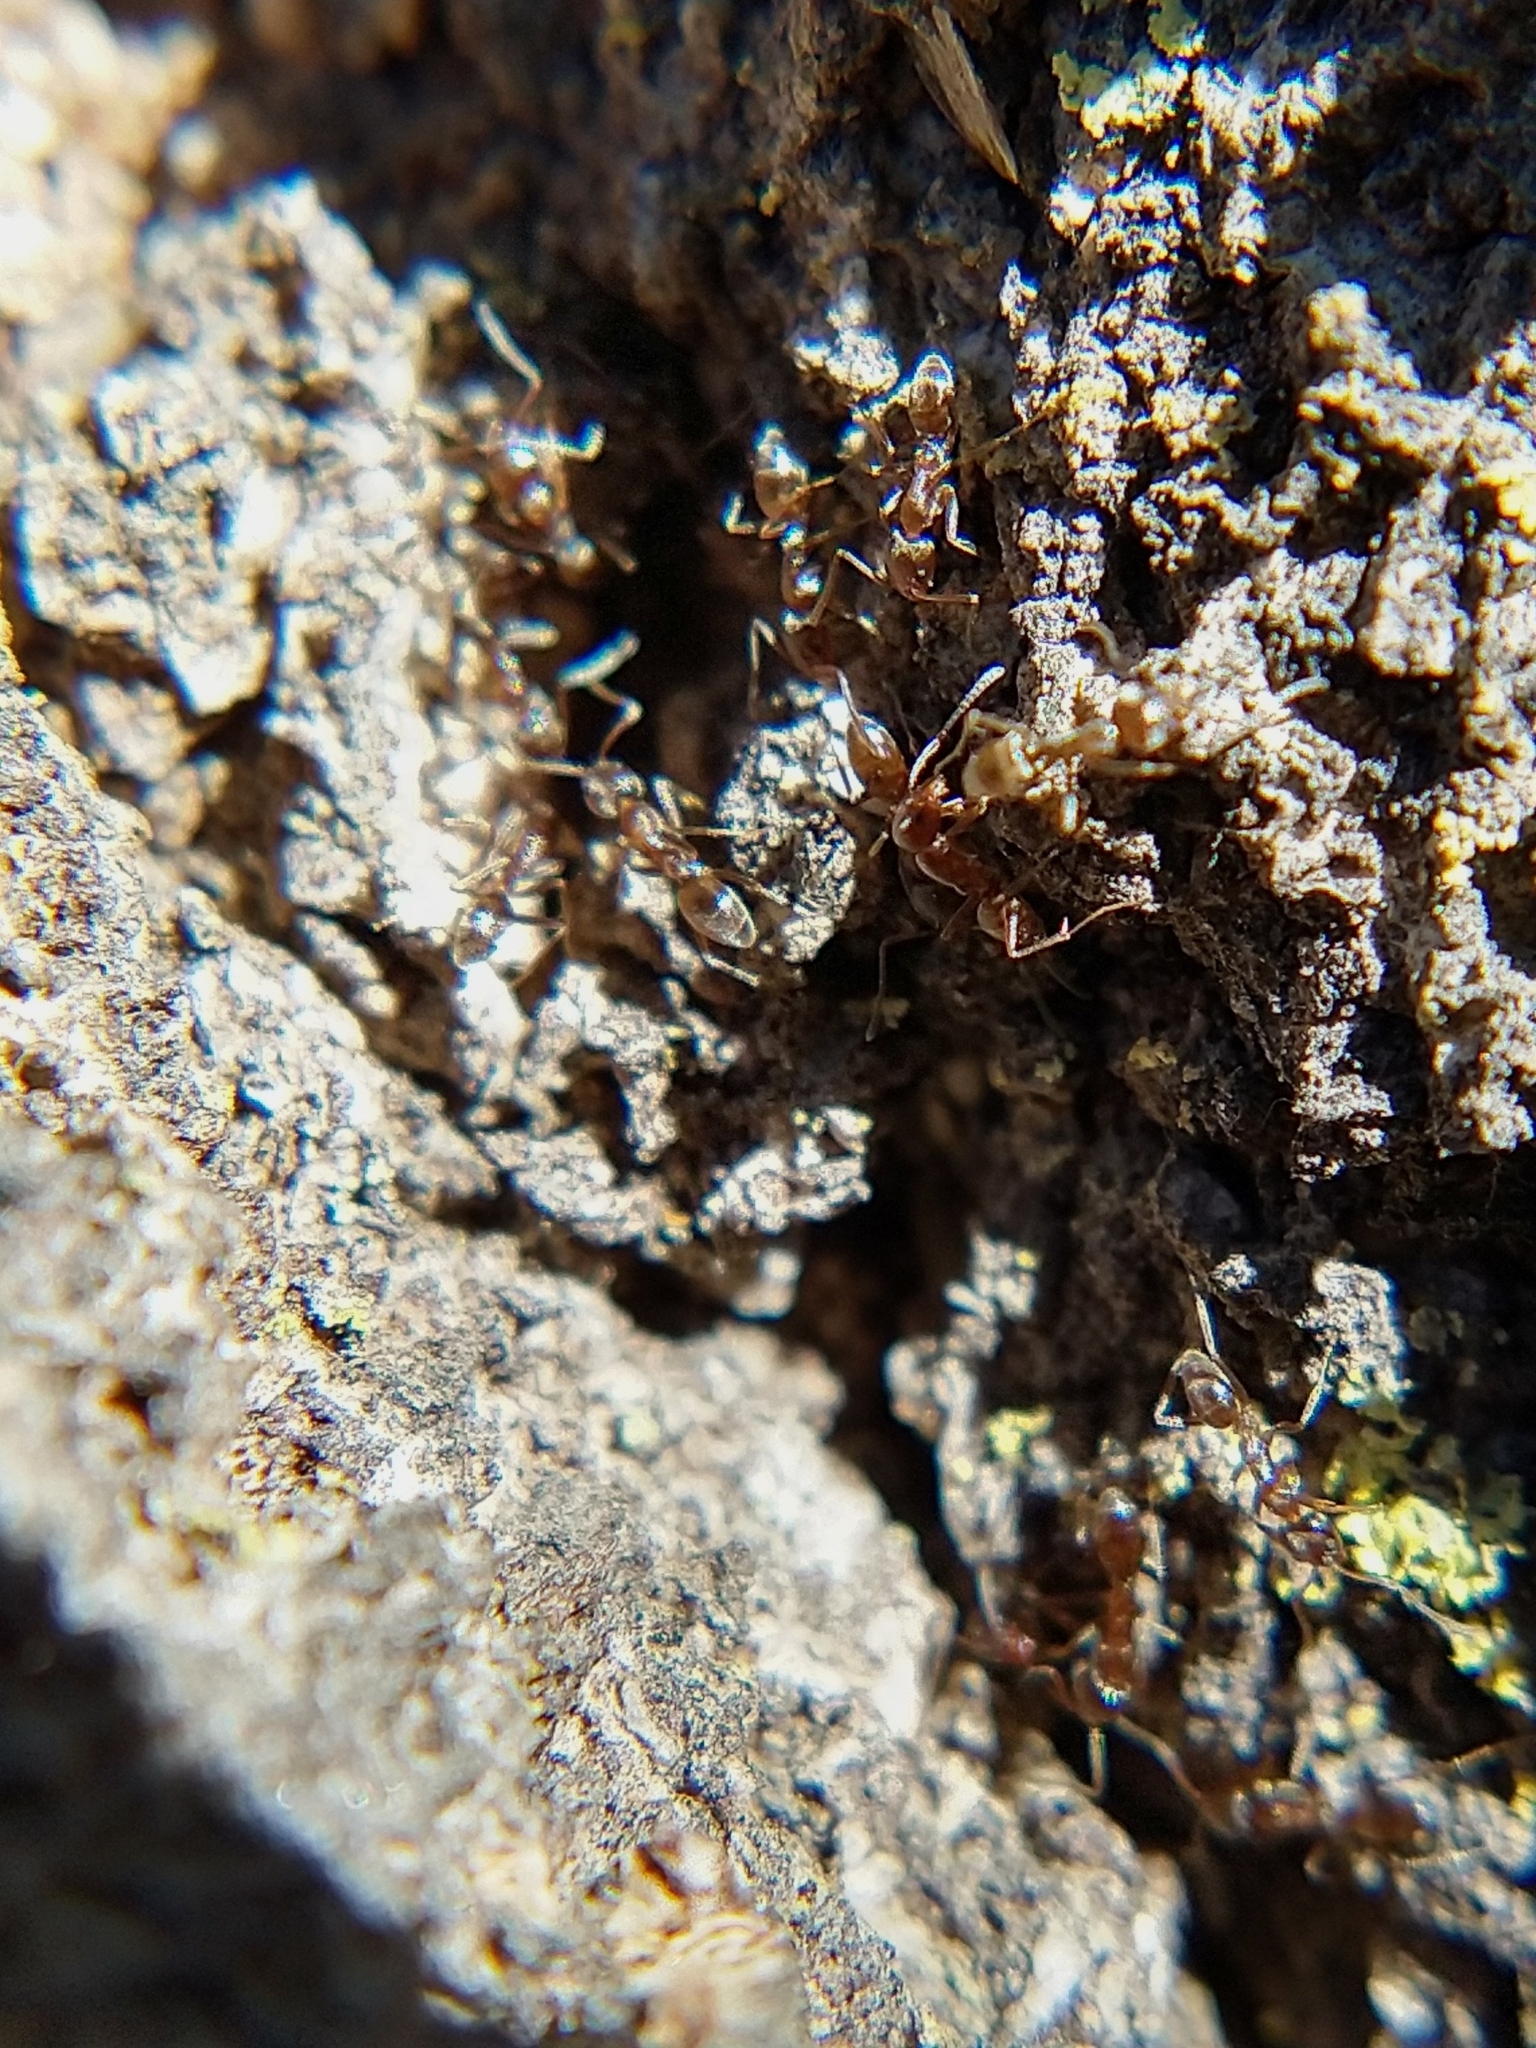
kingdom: Animalia
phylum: Arthropoda
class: Insecta
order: Hymenoptera
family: Formicidae
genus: Linepithema
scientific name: Linepithema humile
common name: Argentine ant
